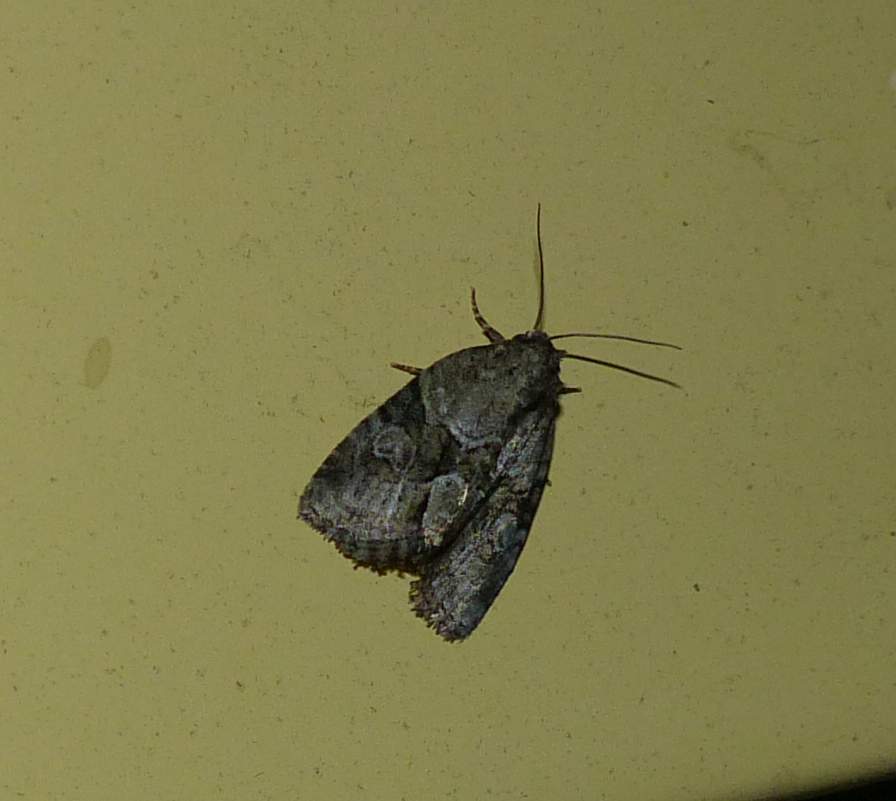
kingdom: Animalia
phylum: Arthropoda
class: Insecta
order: Lepidoptera
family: Noctuidae
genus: Neoligia
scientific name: Neoligia exhausta
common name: Exhausted brocade
